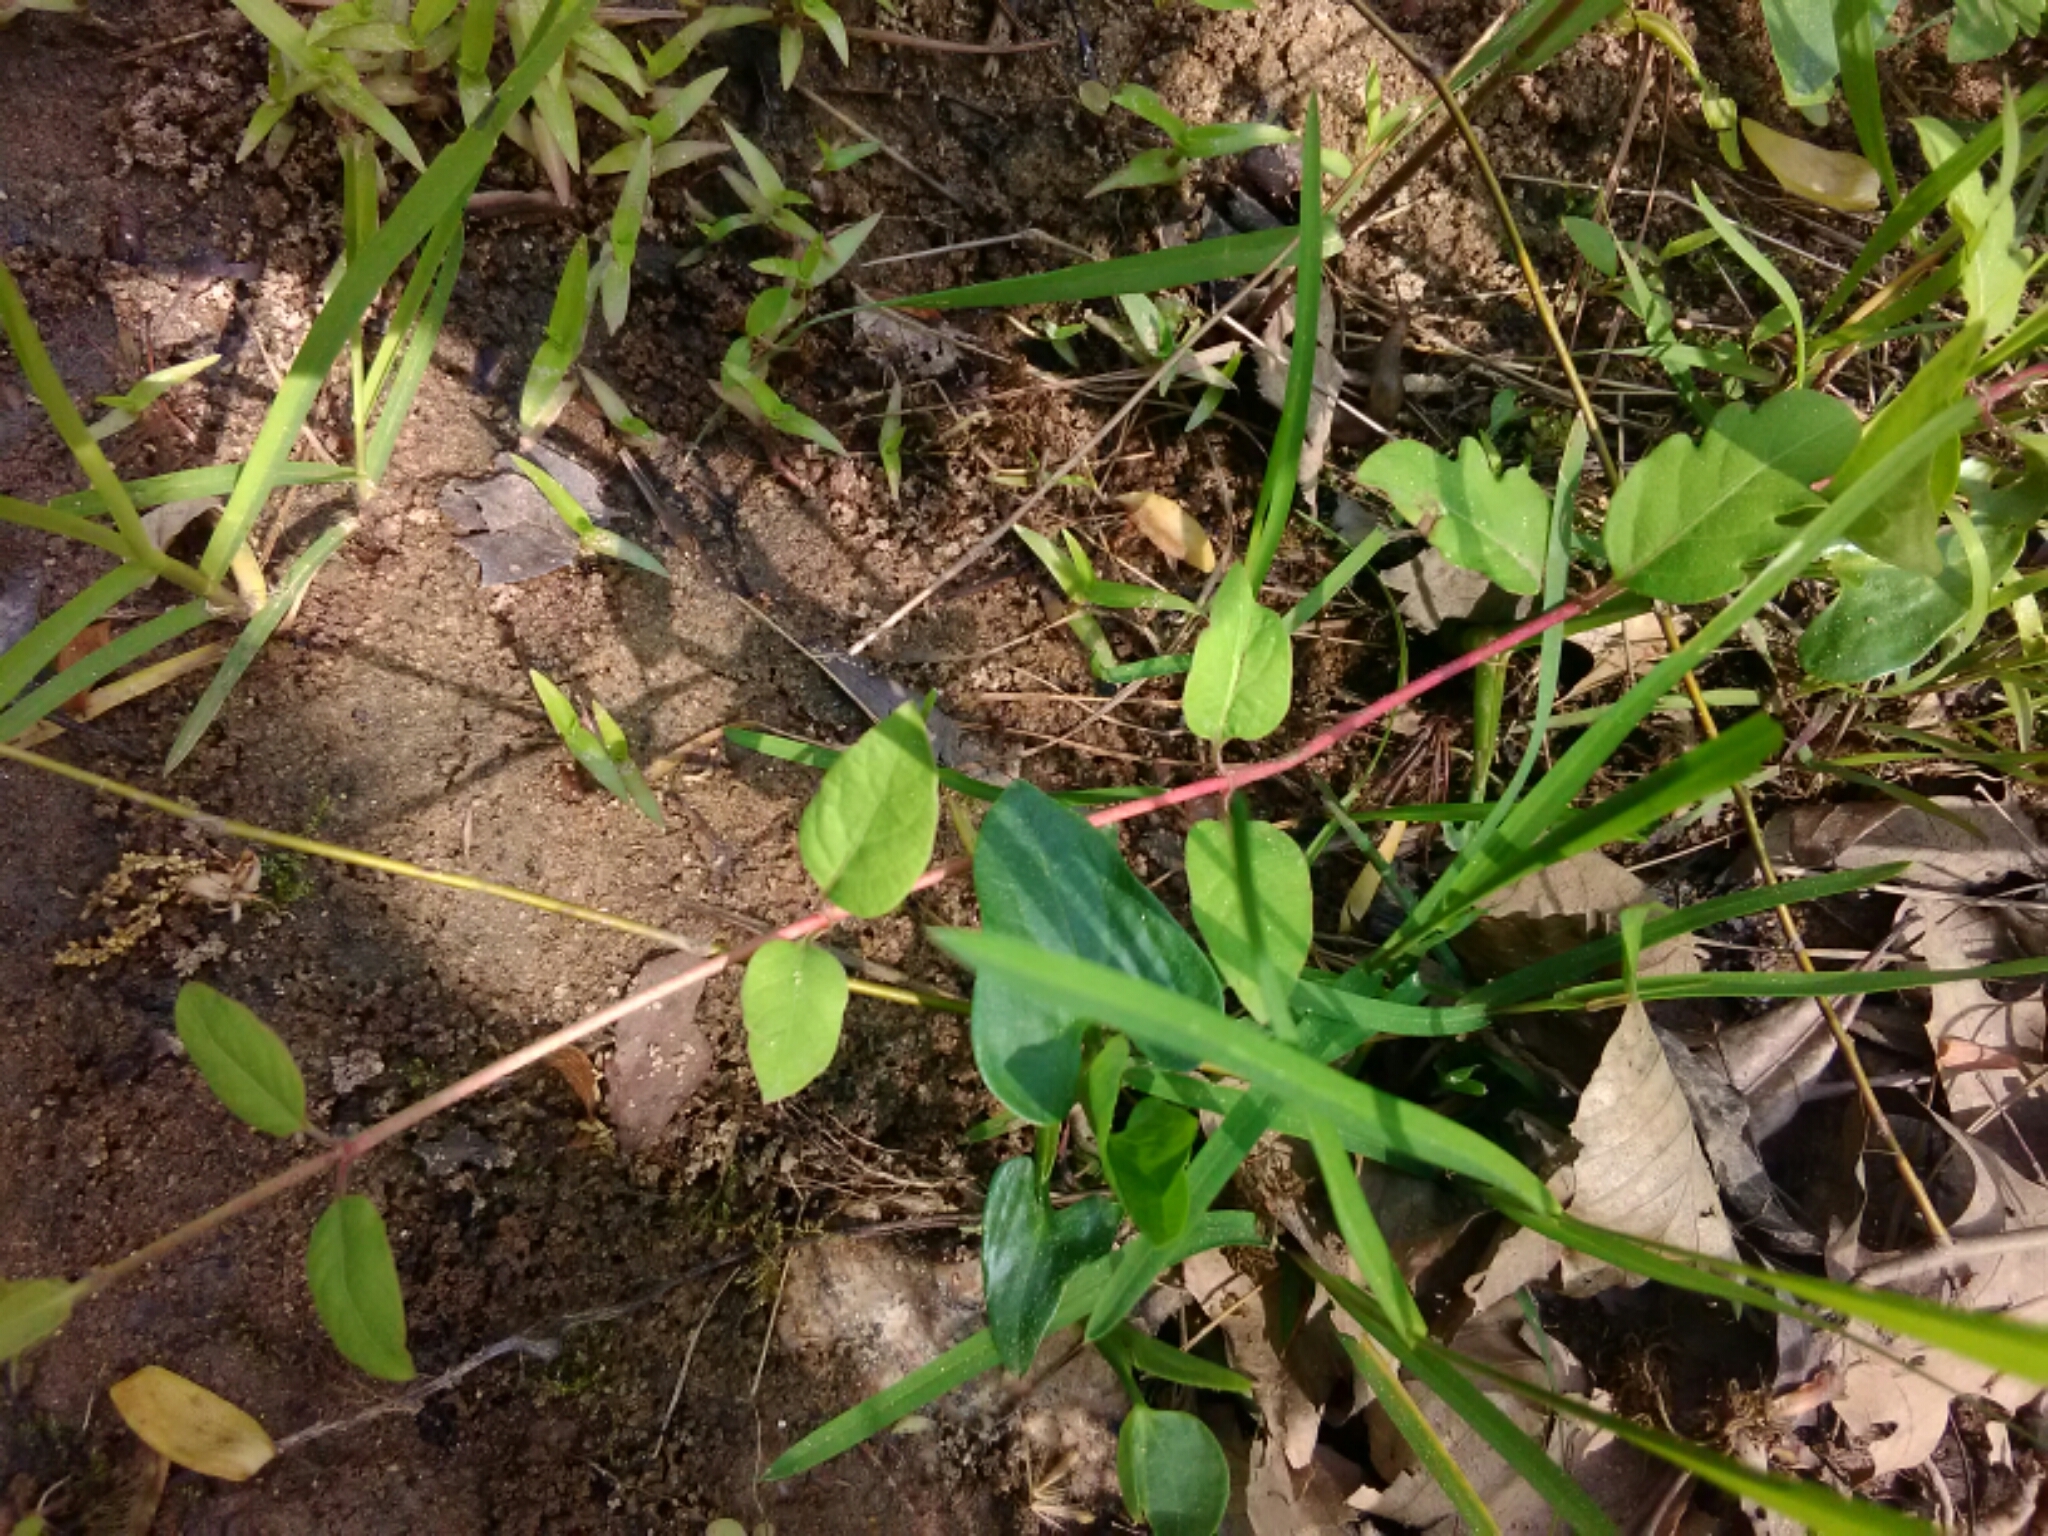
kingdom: Plantae
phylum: Tracheophyta
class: Magnoliopsida
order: Dipsacales
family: Caprifoliaceae
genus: Lonicera
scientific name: Lonicera japonica
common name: Japanese honeysuckle
